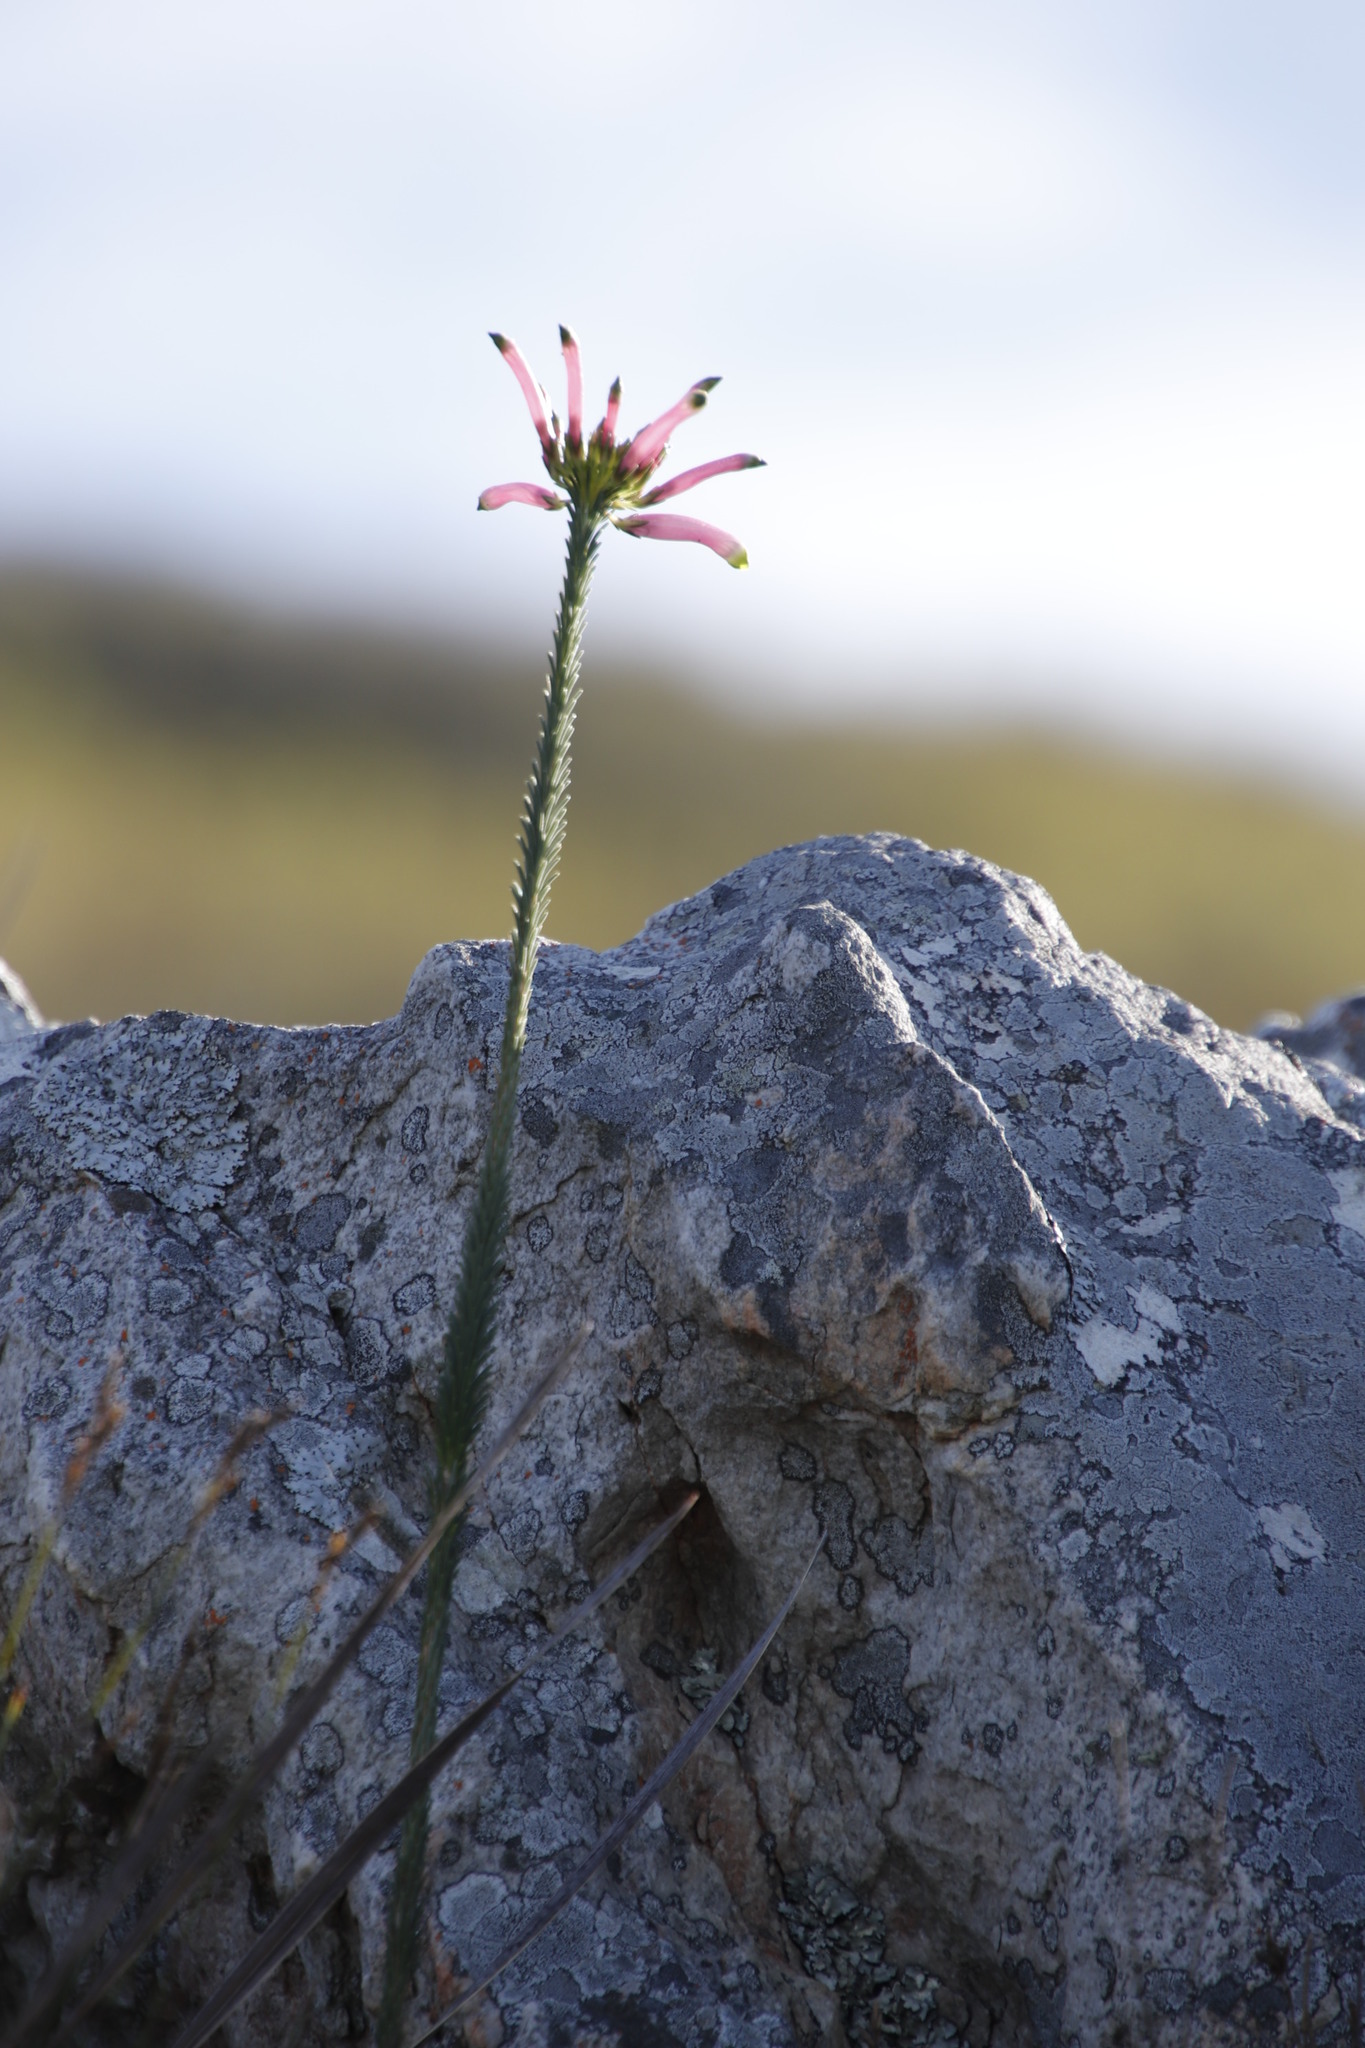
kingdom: Plantae
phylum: Tracheophyta
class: Magnoliopsida
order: Ericales
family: Ericaceae
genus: Erica
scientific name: Erica fascicularis
